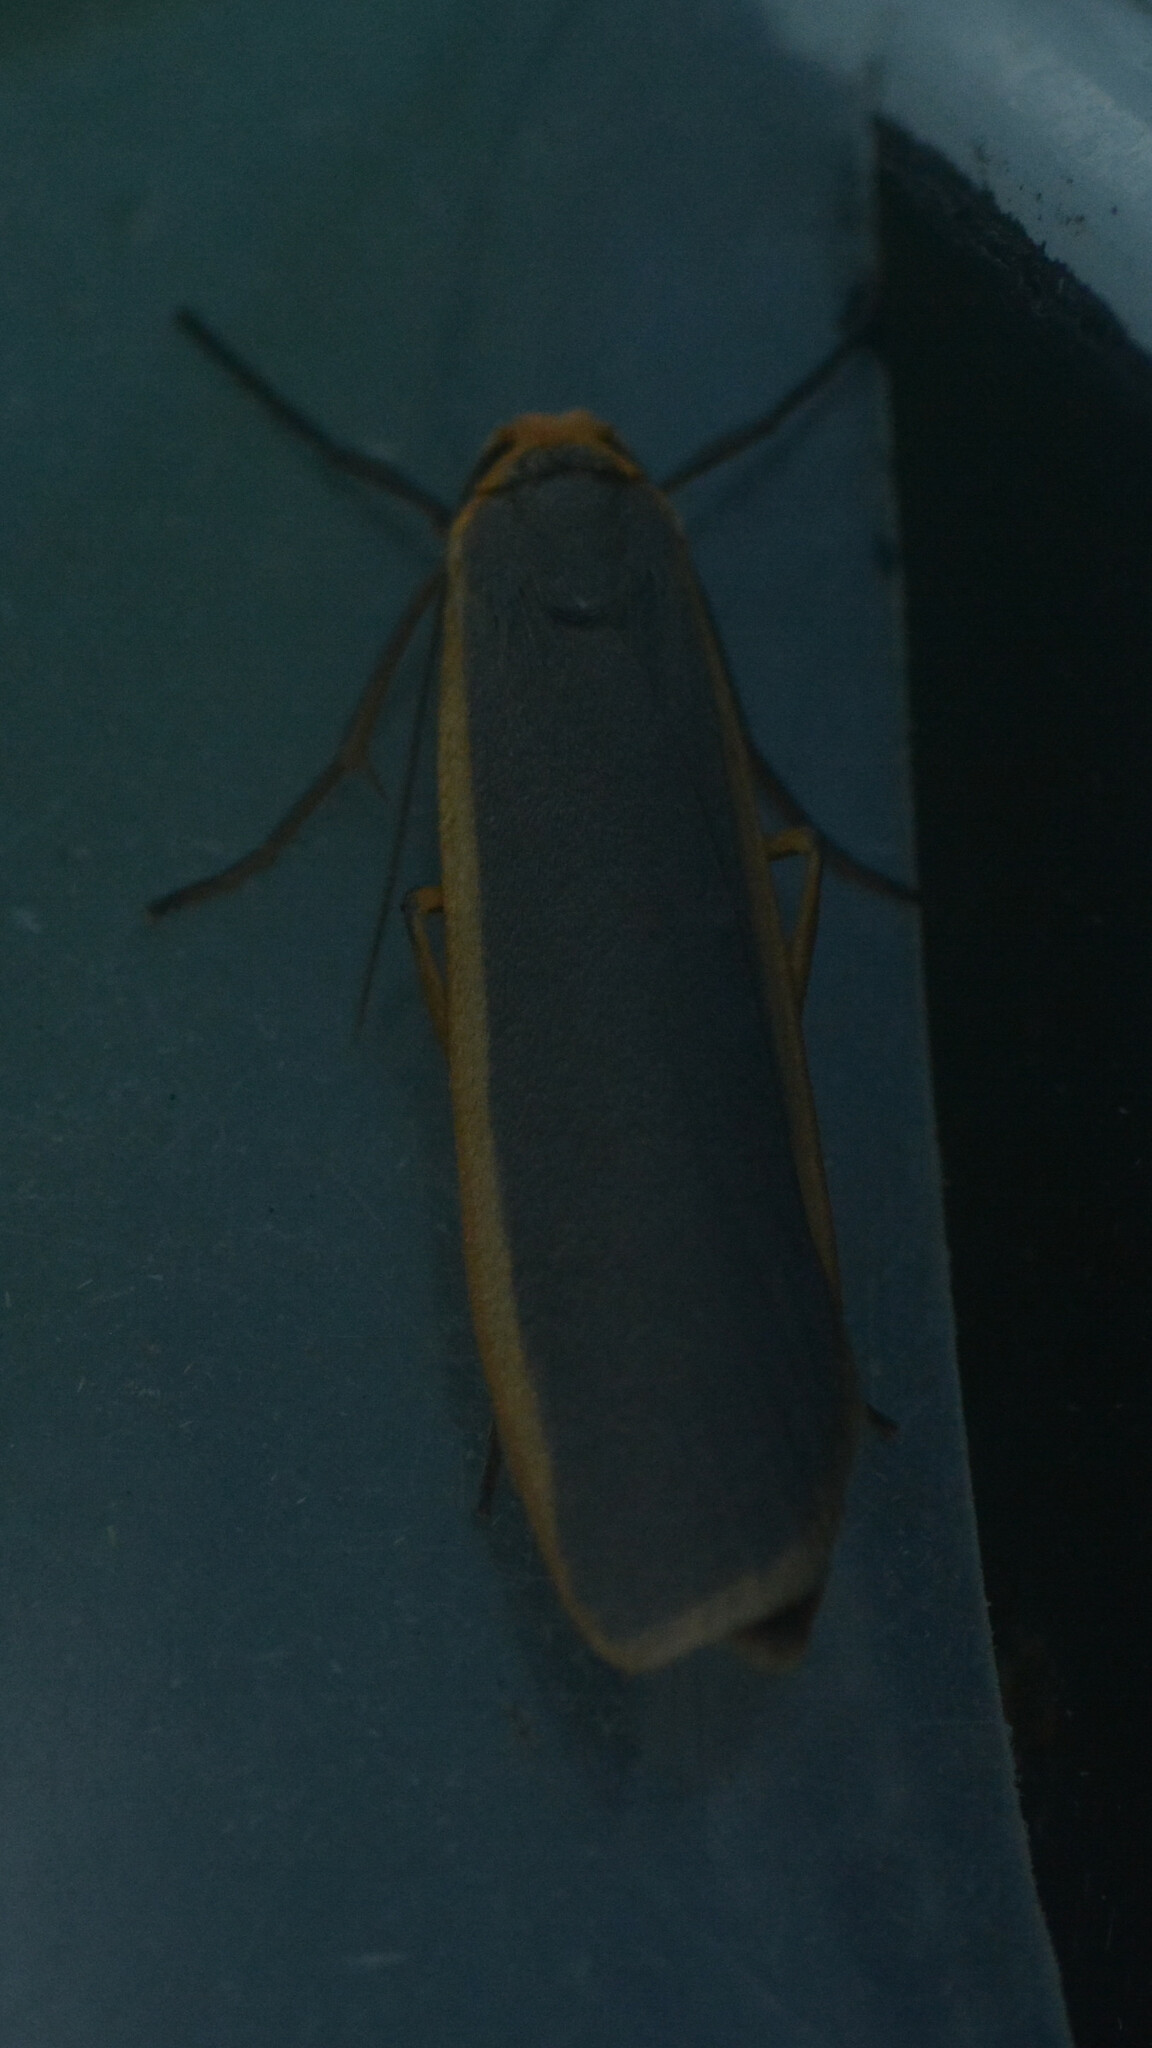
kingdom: Animalia
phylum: Arthropoda
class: Insecta
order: Lepidoptera
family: Erebidae
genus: Nyea
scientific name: Nyea lurideola
